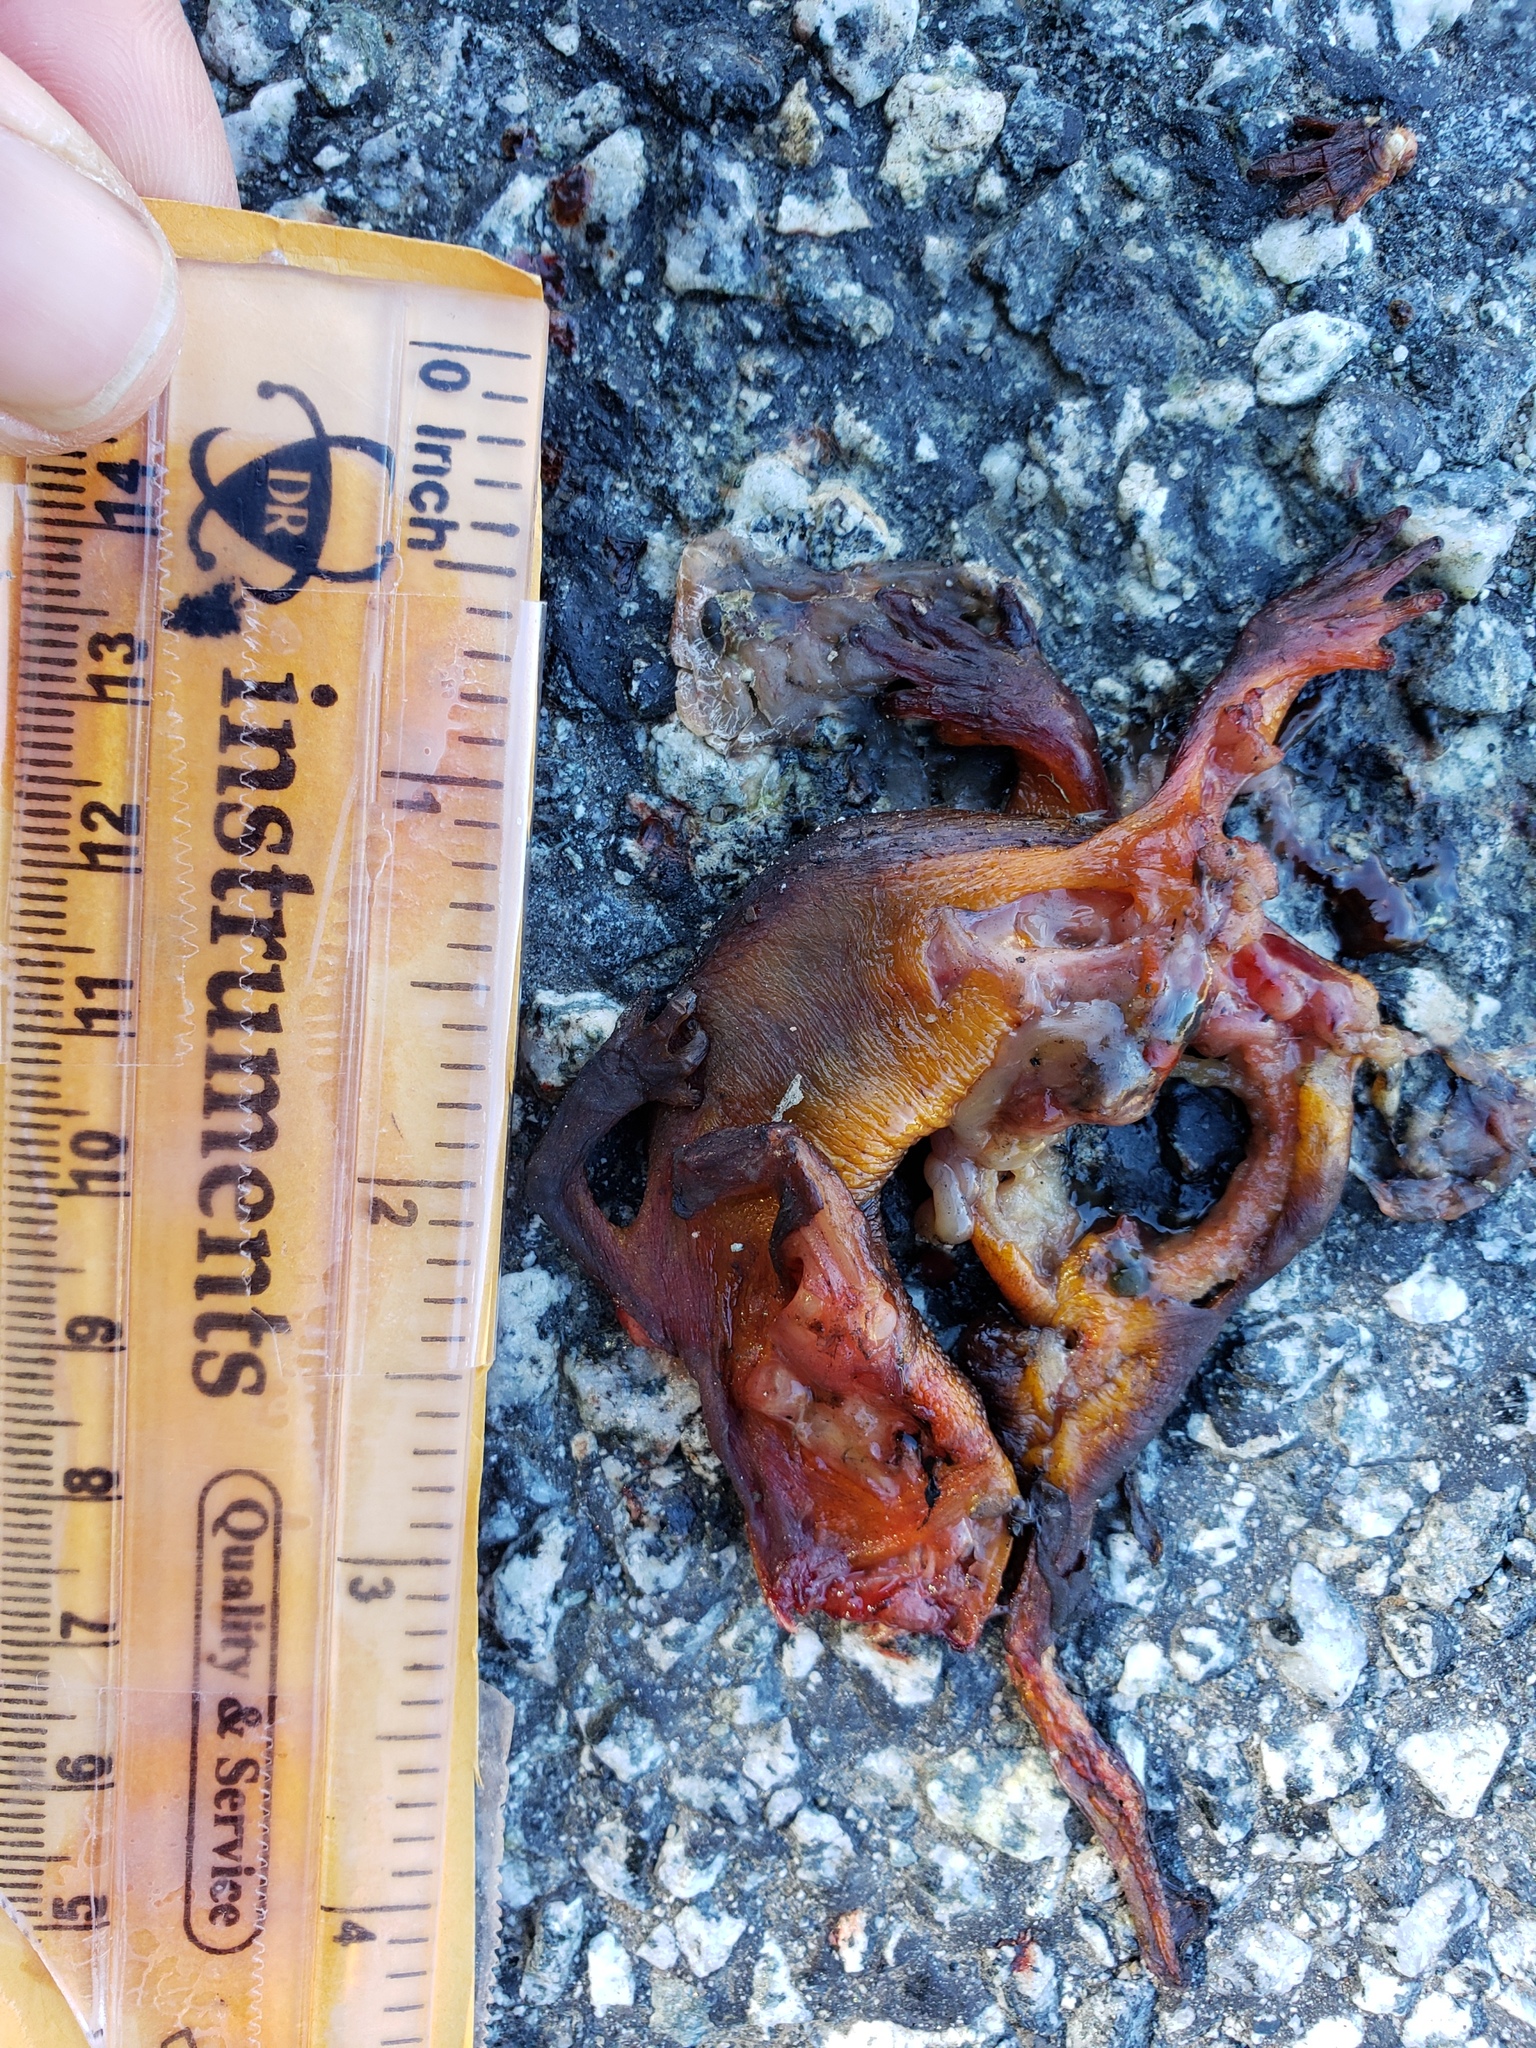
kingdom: Animalia
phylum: Chordata
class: Amphibia
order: Caudata
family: Salamandridae
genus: Taricha
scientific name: Taricha
